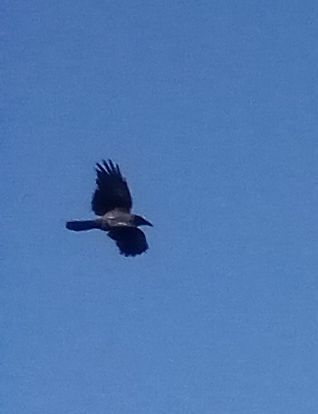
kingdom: Animalia
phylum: Chordata
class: Aves
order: Passeriformes
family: Corvidae
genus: Corvus
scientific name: Corvus cornix
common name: Hooded crow
